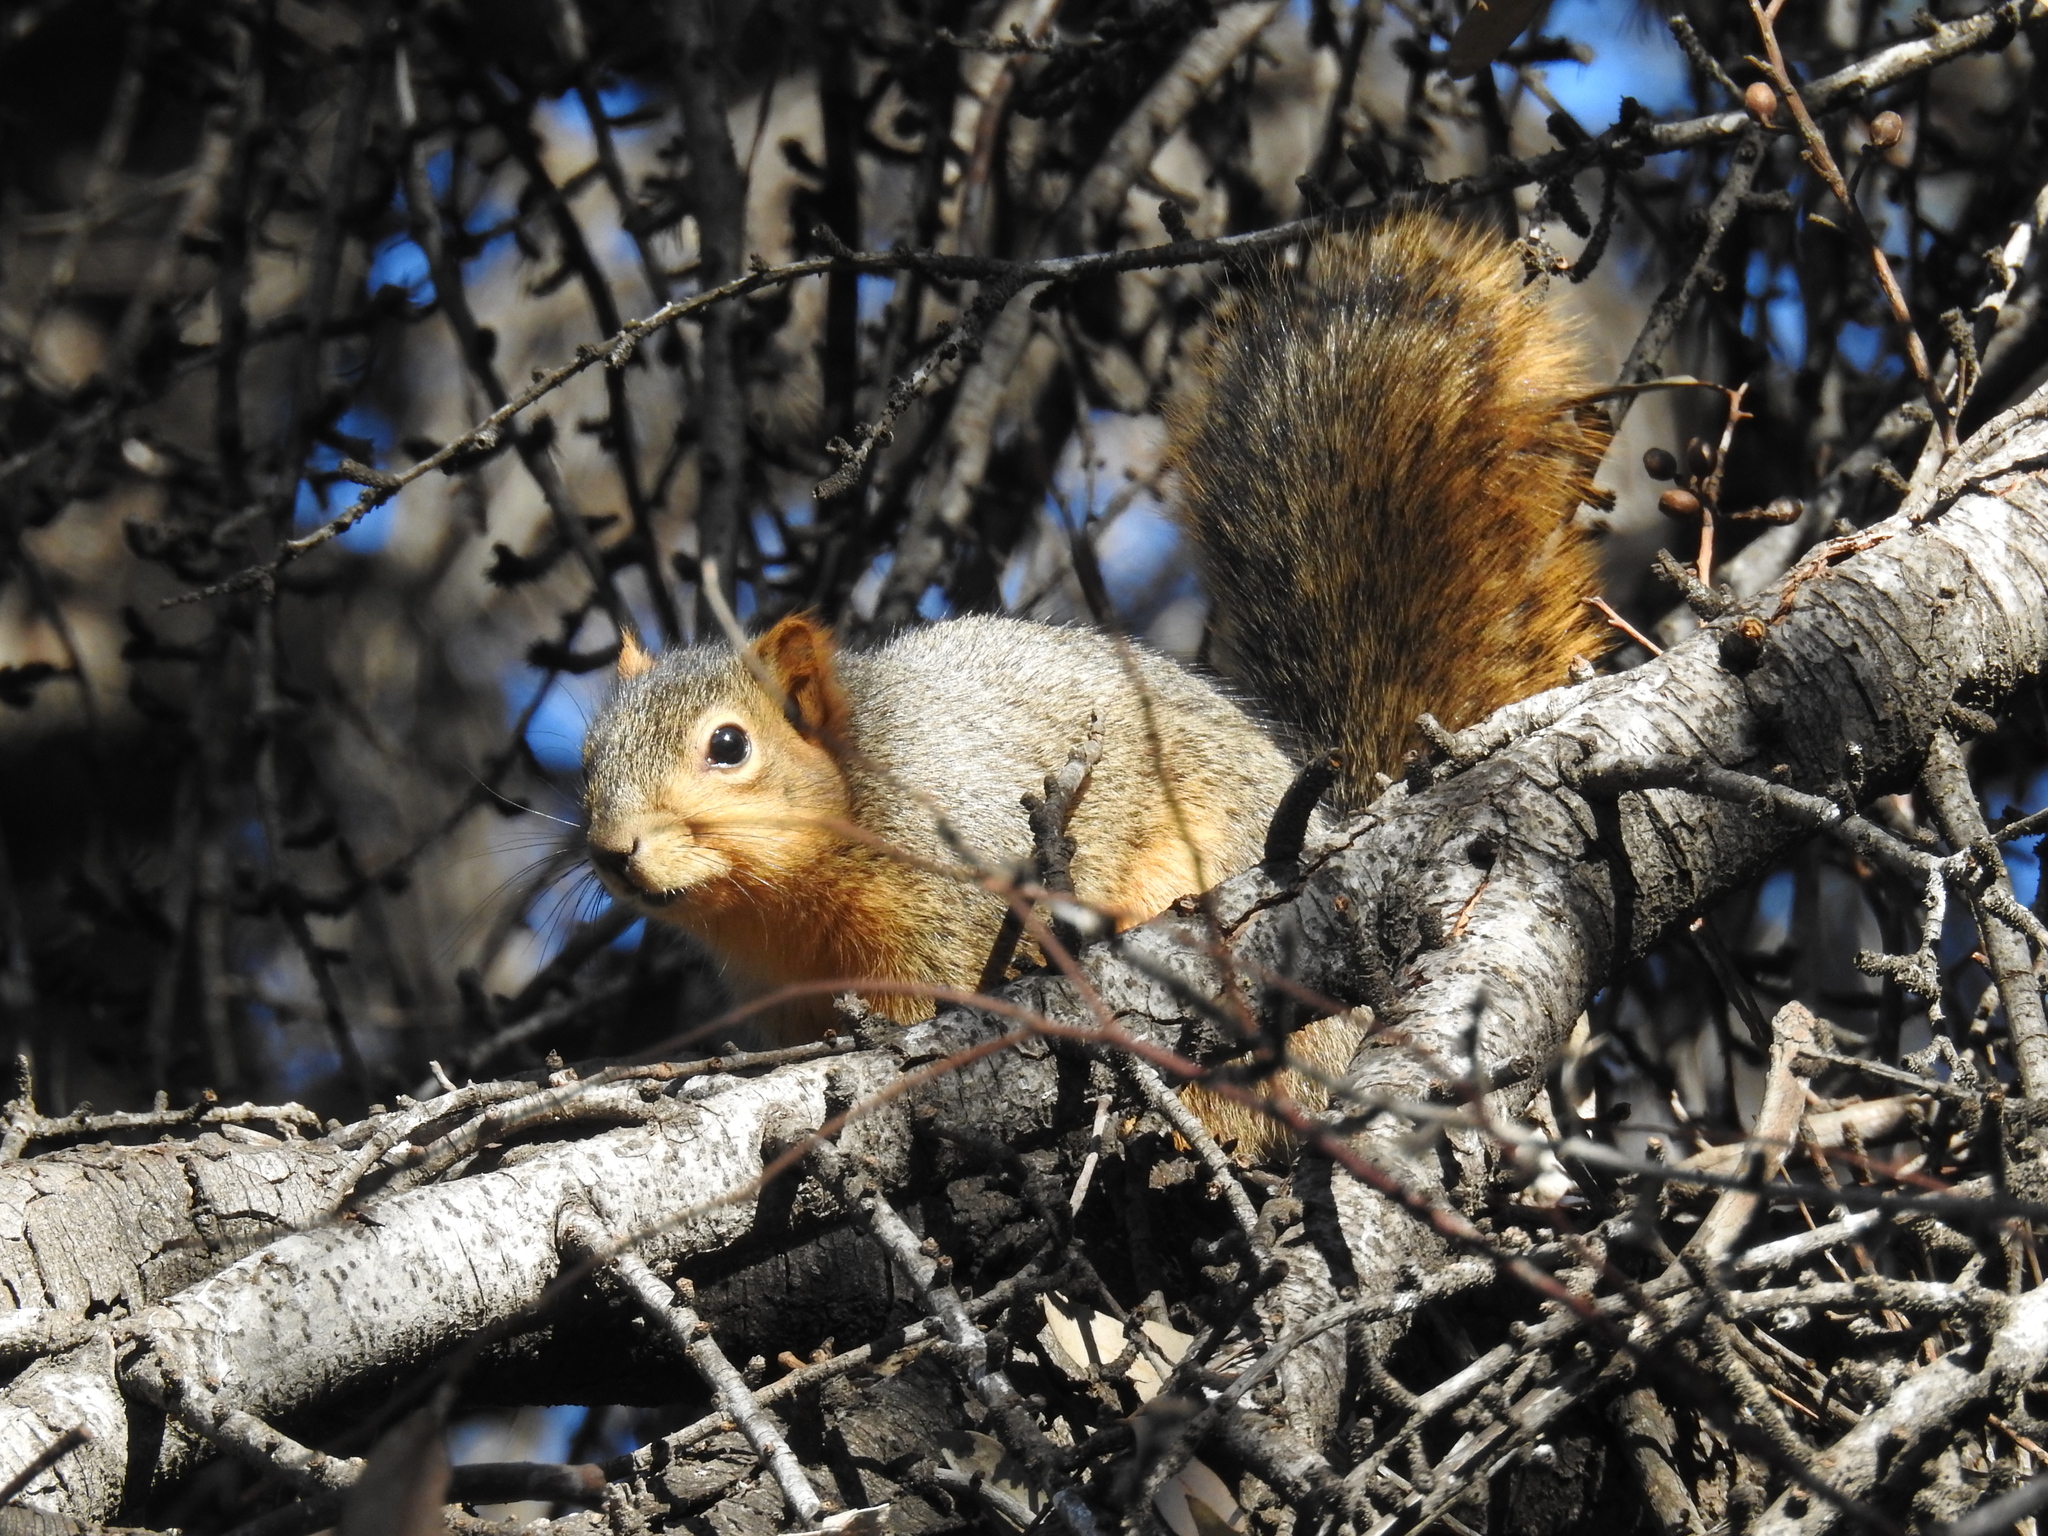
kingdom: Animalia
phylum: Chordata
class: Mammalia
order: Rodentia
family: Sciuridae
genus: Sciurus
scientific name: Sciurus niger
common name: Fox squirrel
